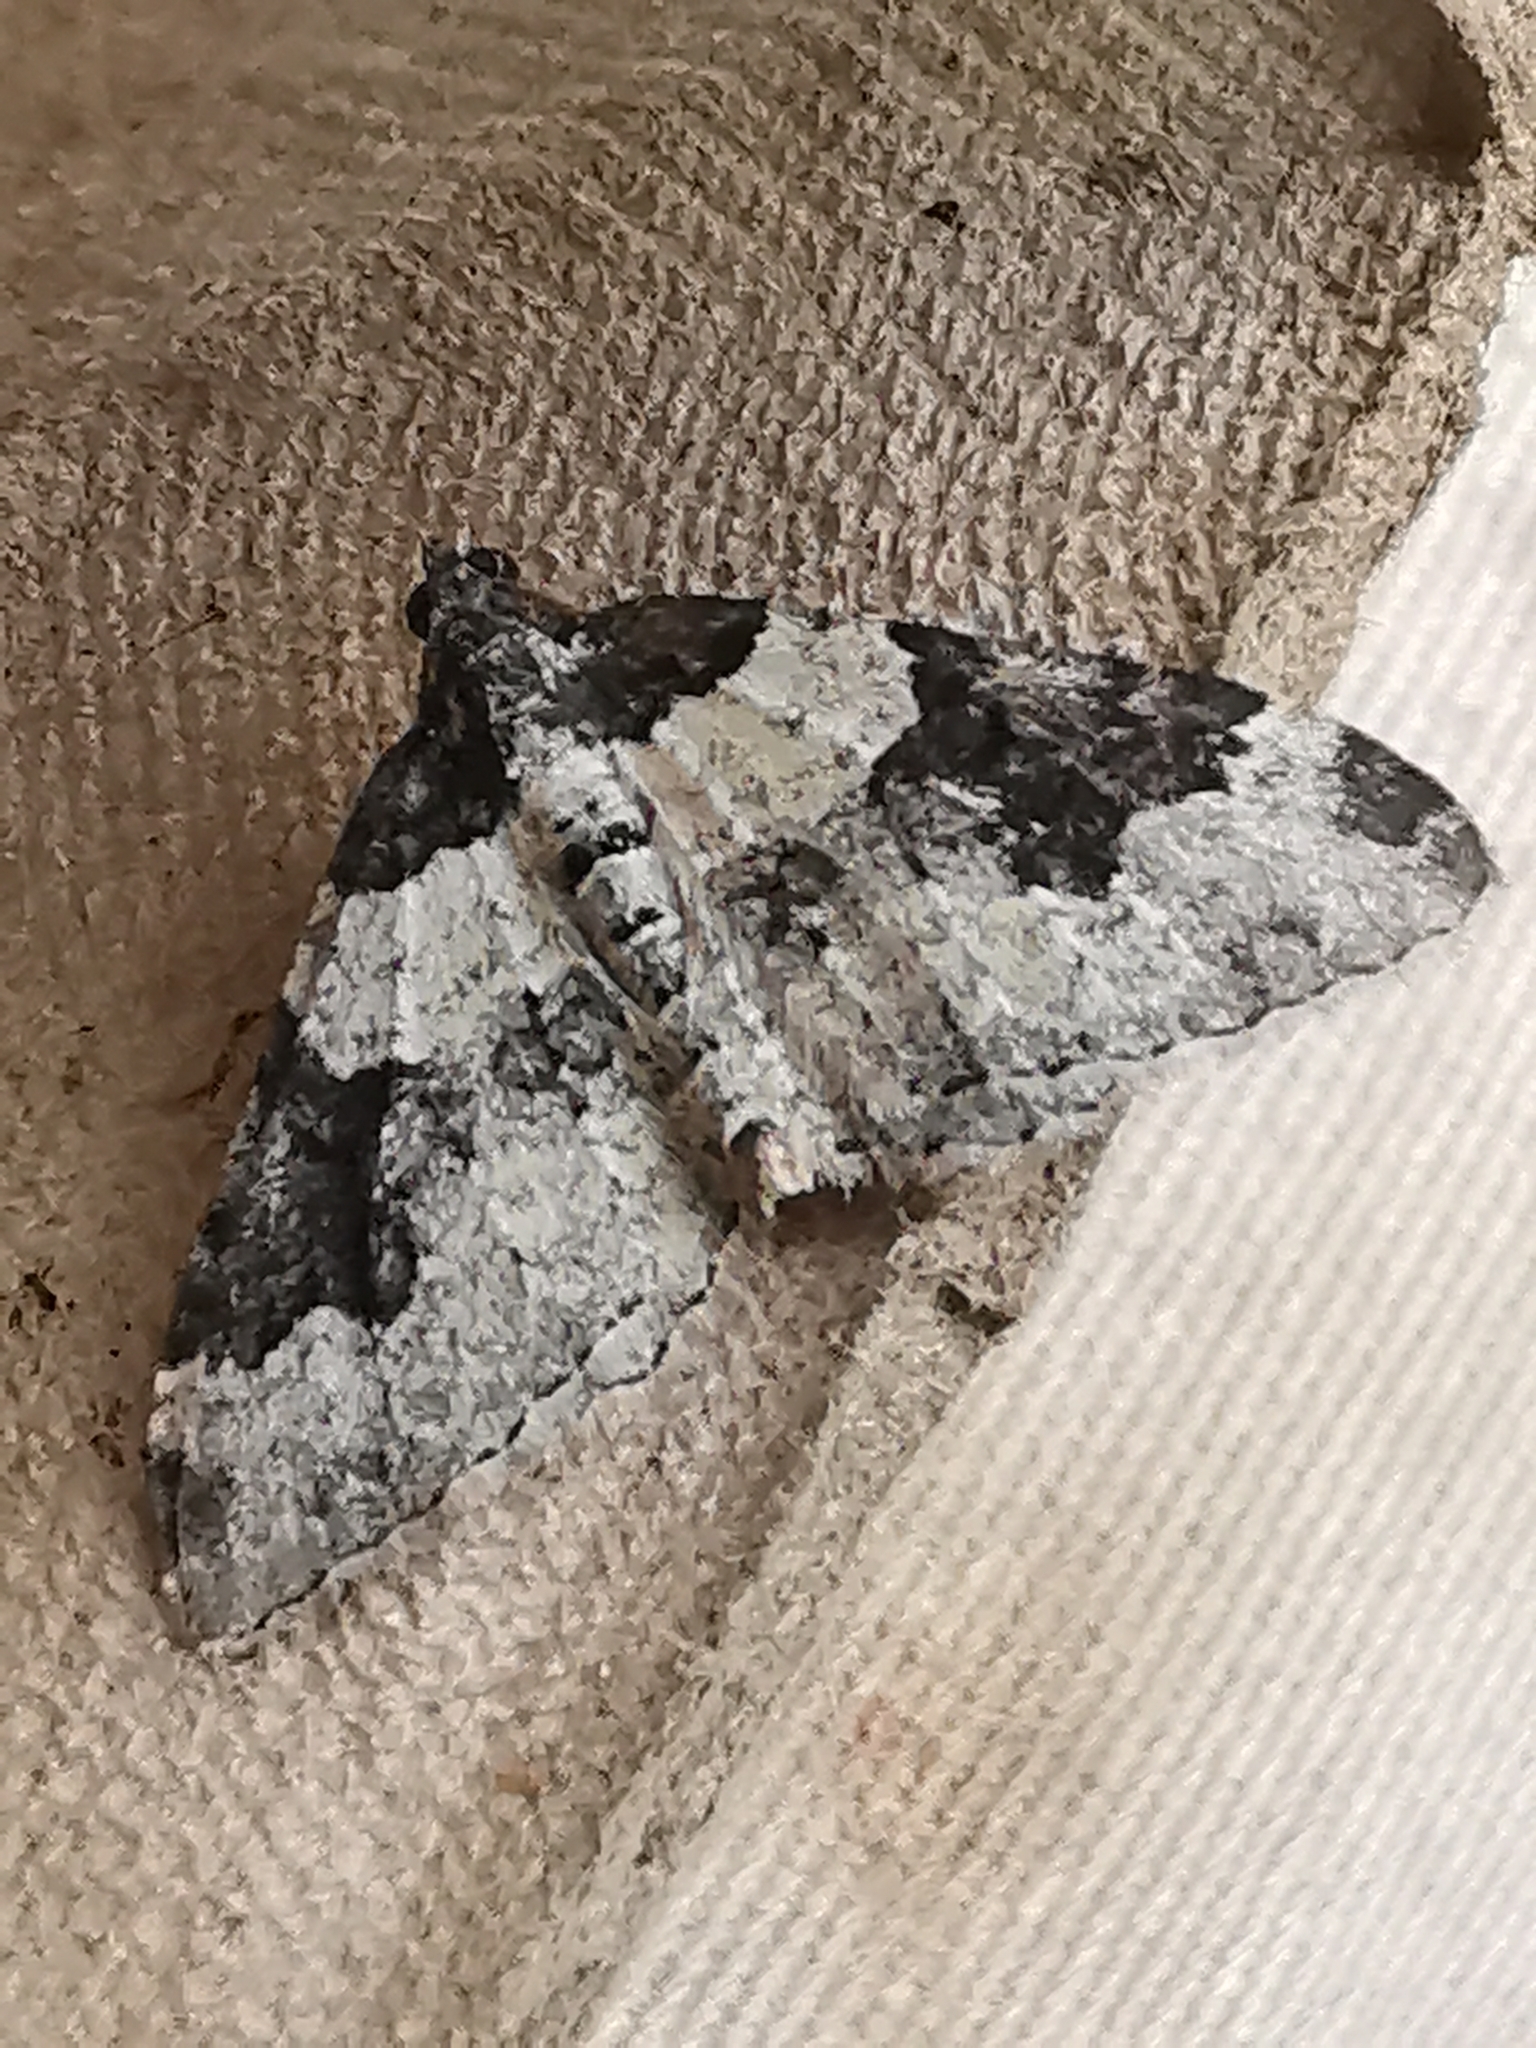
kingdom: Animalia
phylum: Arthropoda
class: Insecta
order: Lepidoptera
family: Geometridae
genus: Xanthorhoe
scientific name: Xanthorhoe fluctuata
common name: Garden carpet
